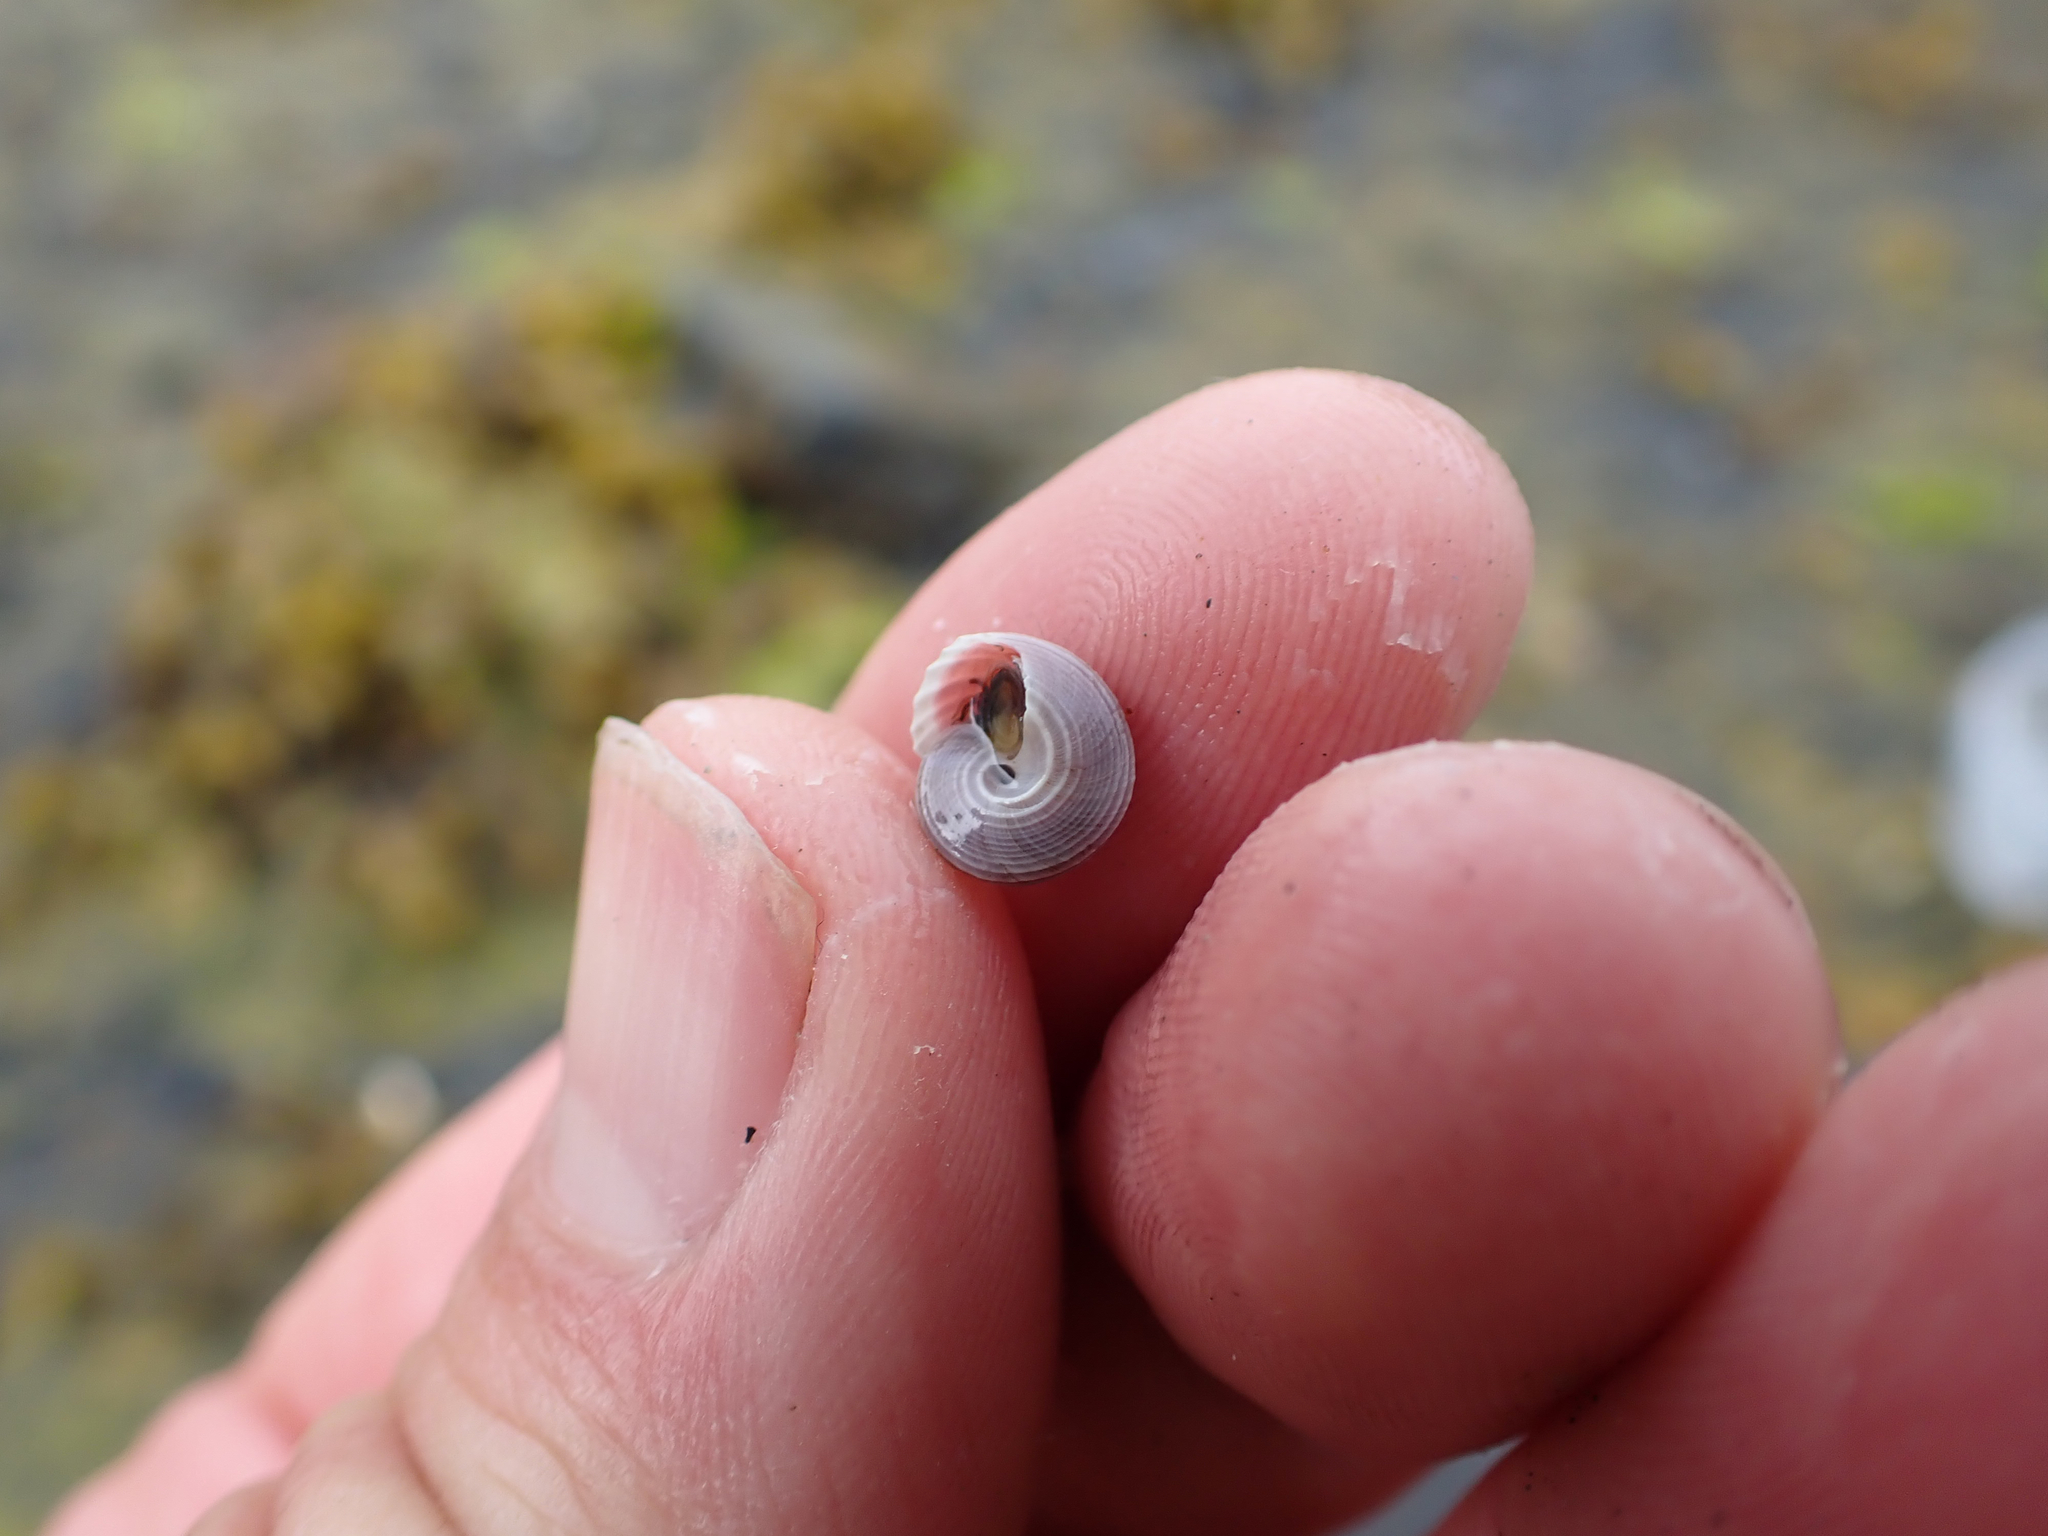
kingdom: Animalia
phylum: Mollusca
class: Gastropoda
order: Trochida
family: Margaritidae
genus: Margarites
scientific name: Margarites pupillus
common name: Puppet margarite
